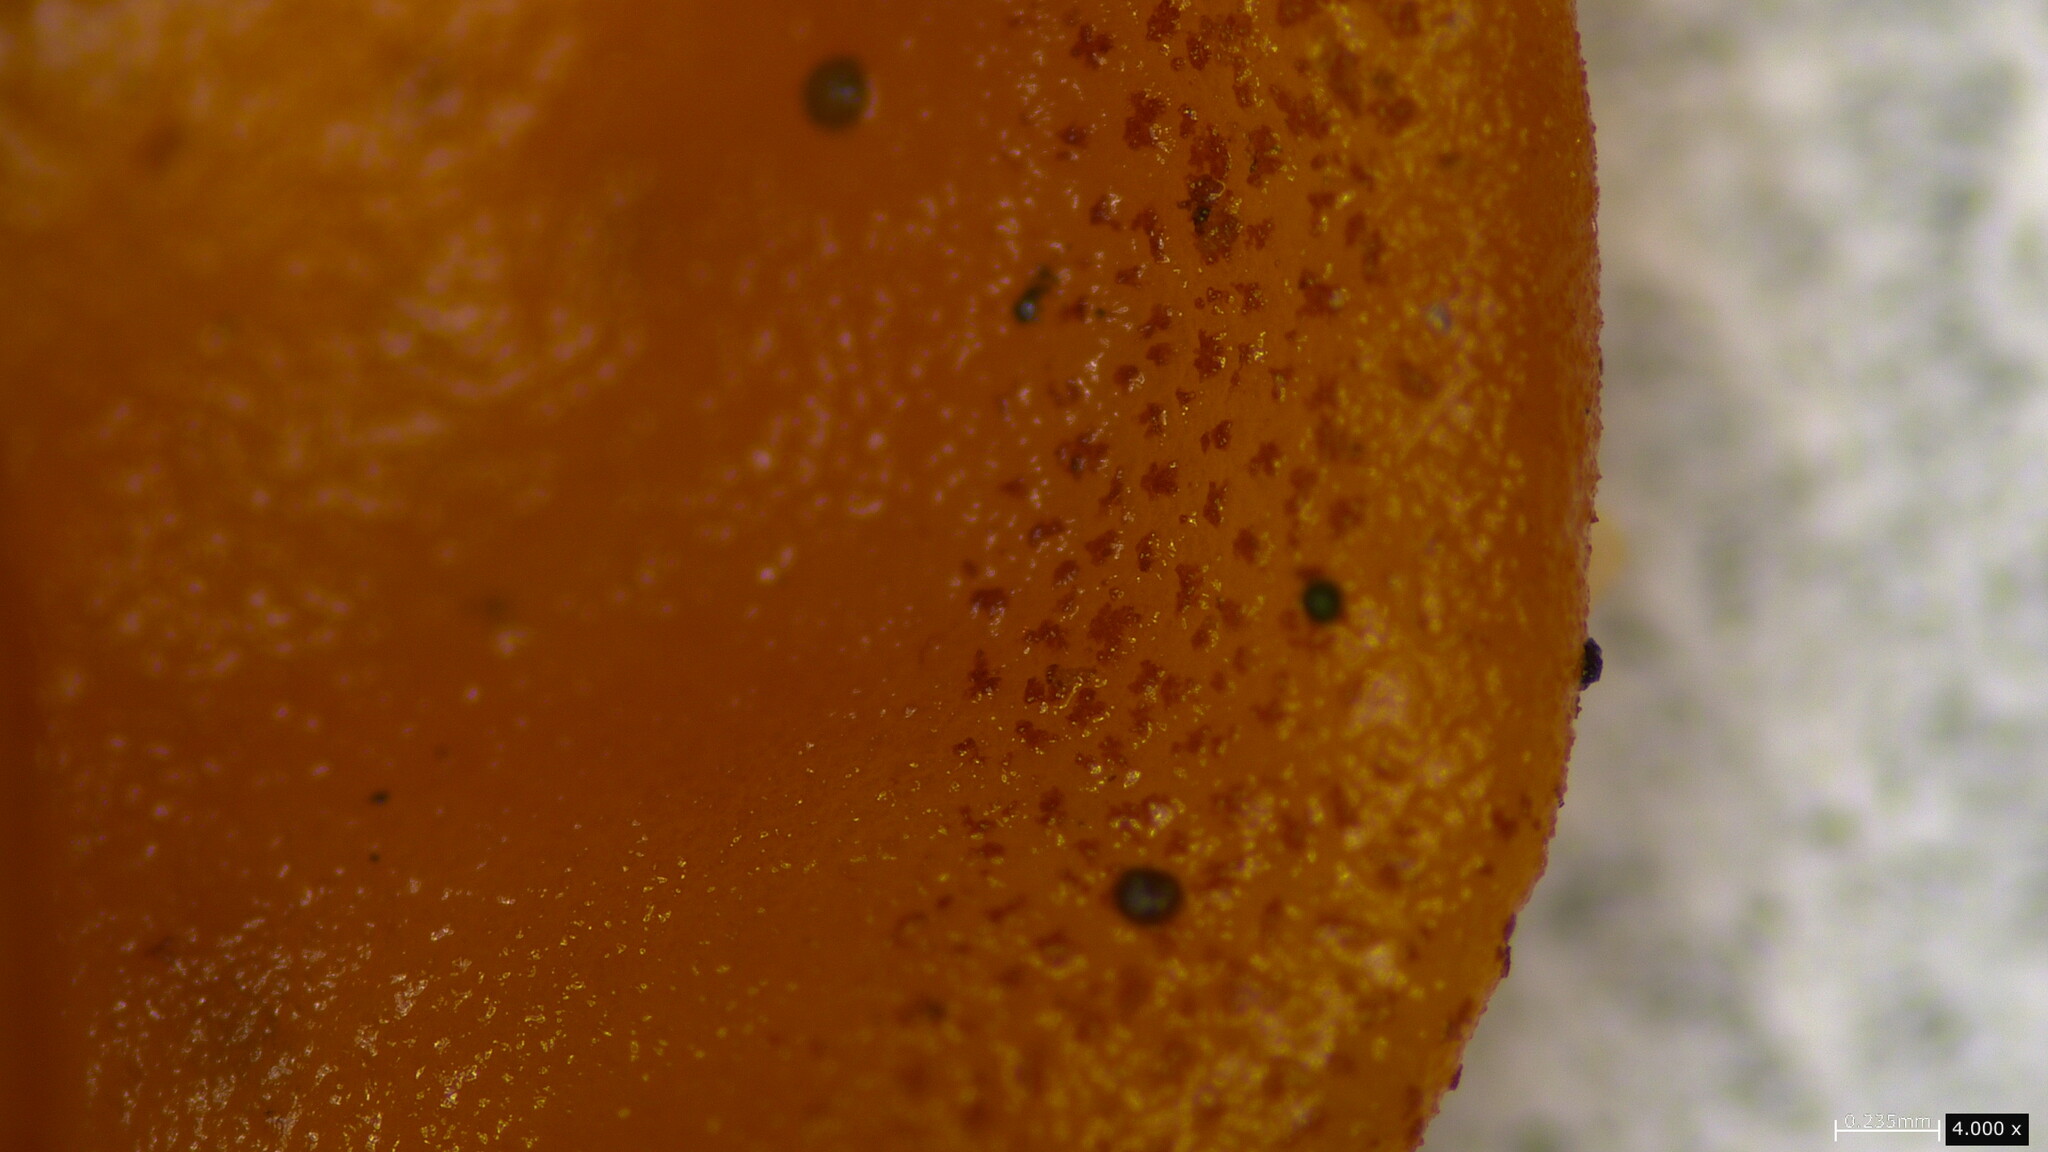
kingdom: Fungi
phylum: Basidiomycota
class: Tremellomycetes
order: Tremellales
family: Sirobasidiaceae
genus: Sirobasidium
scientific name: Sirobasidium magnum
